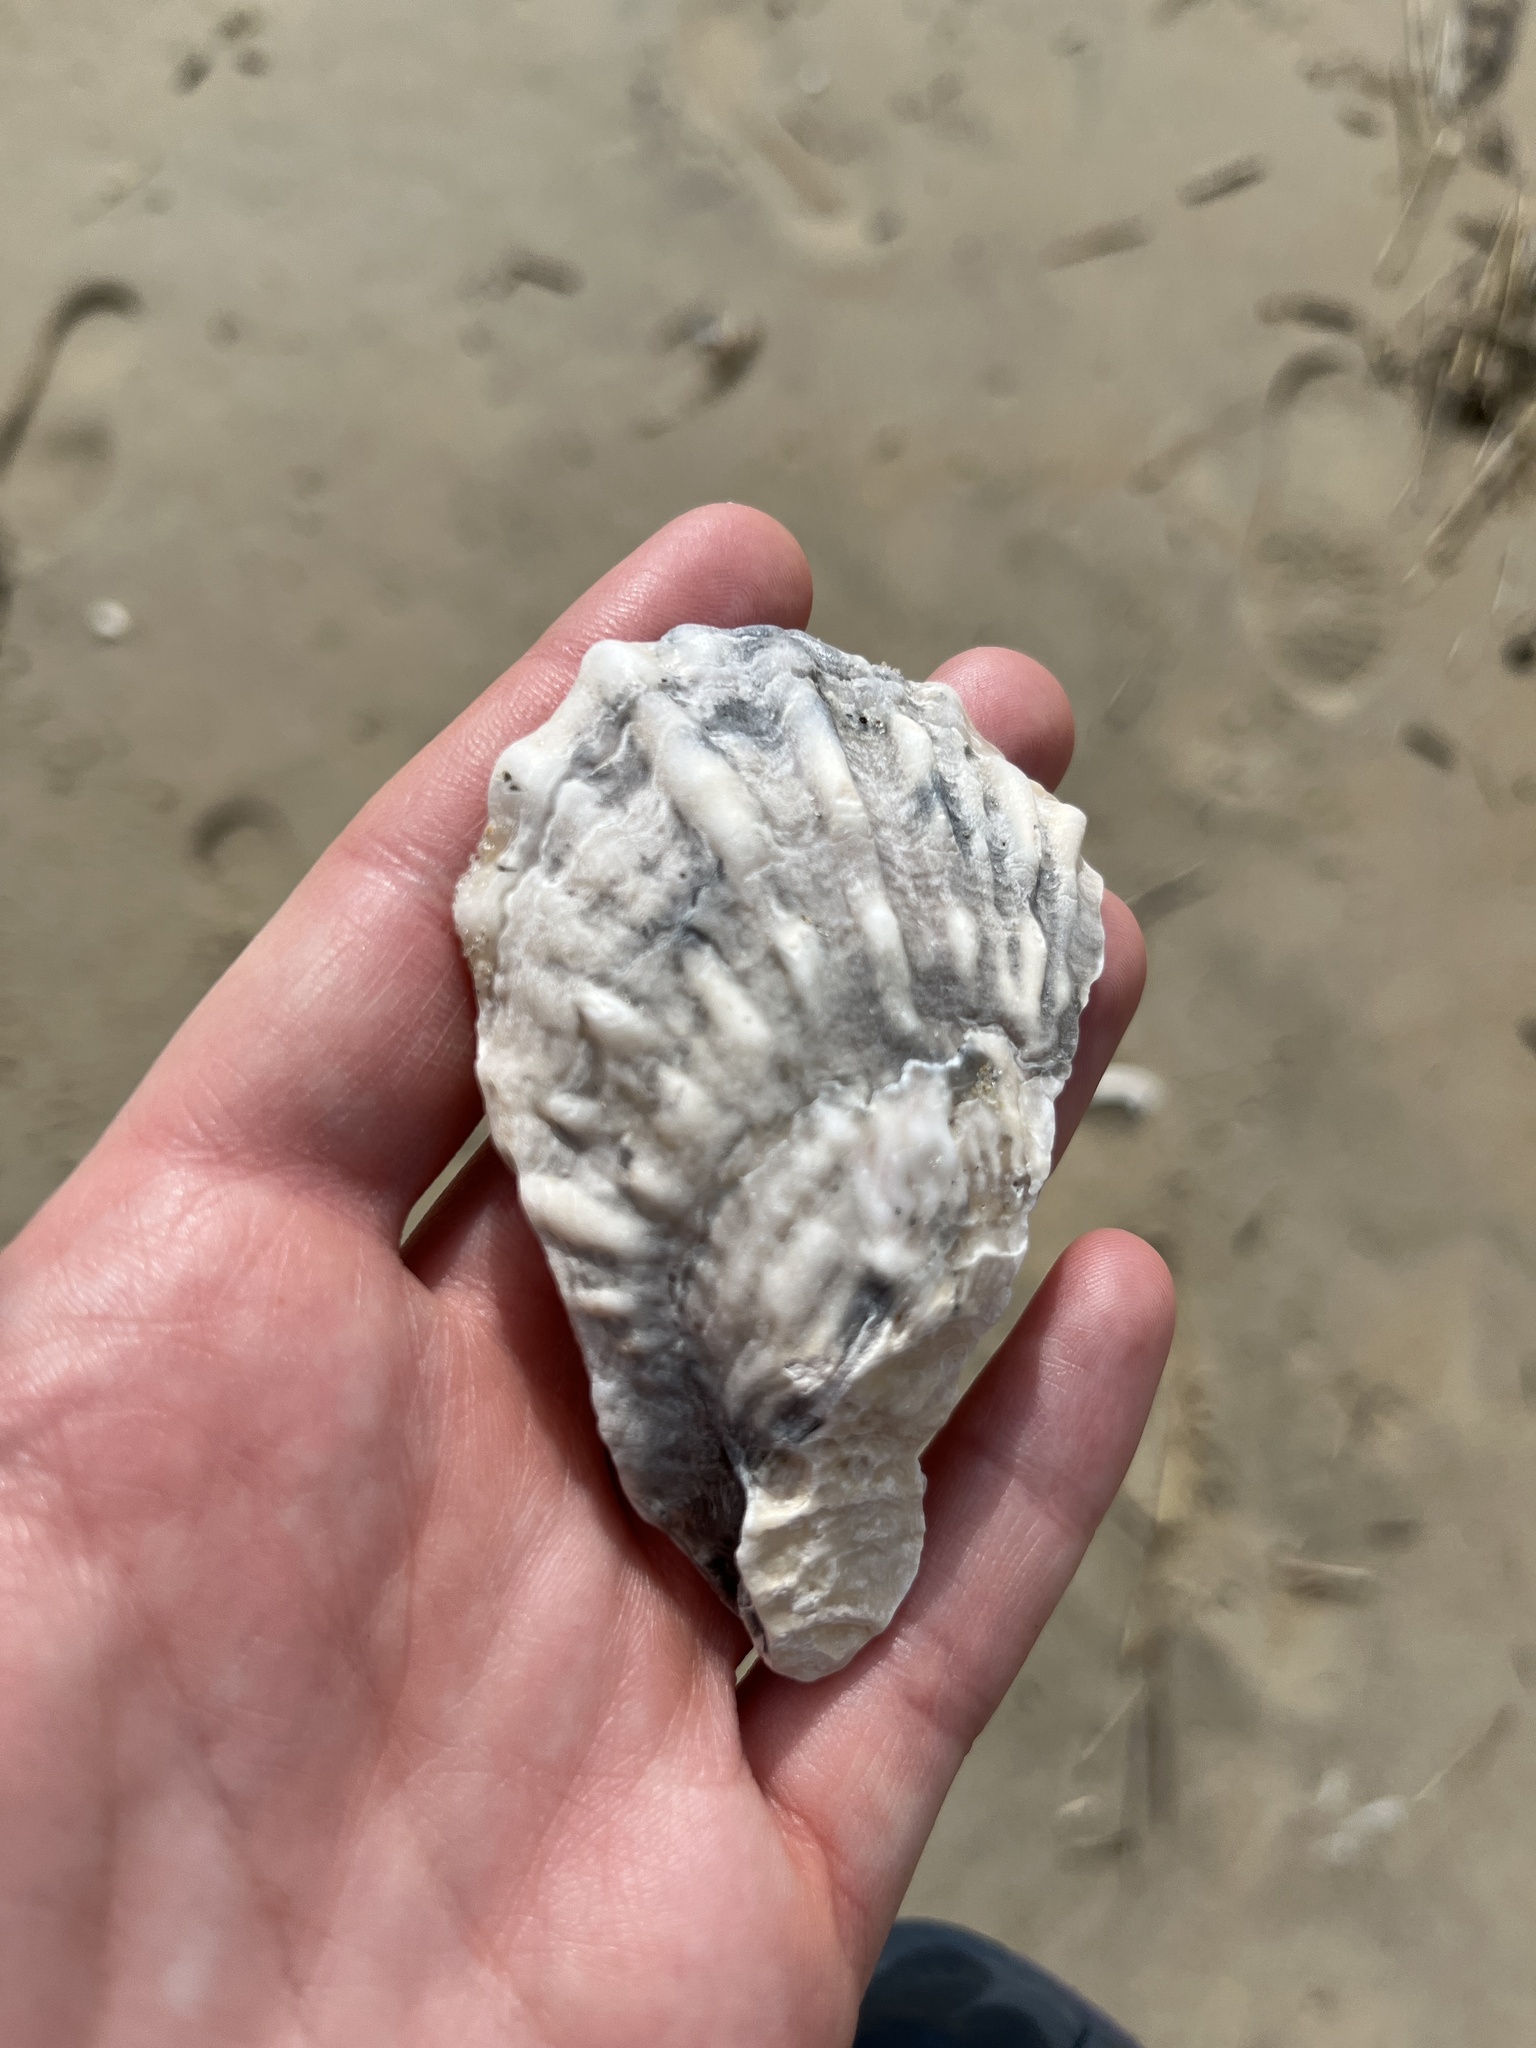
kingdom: Animalia
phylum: Mollusca
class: Bivalvia
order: Ostreida
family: Ostreidae
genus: Crassostrea
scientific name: Crassostrea virginica
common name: American oyster
